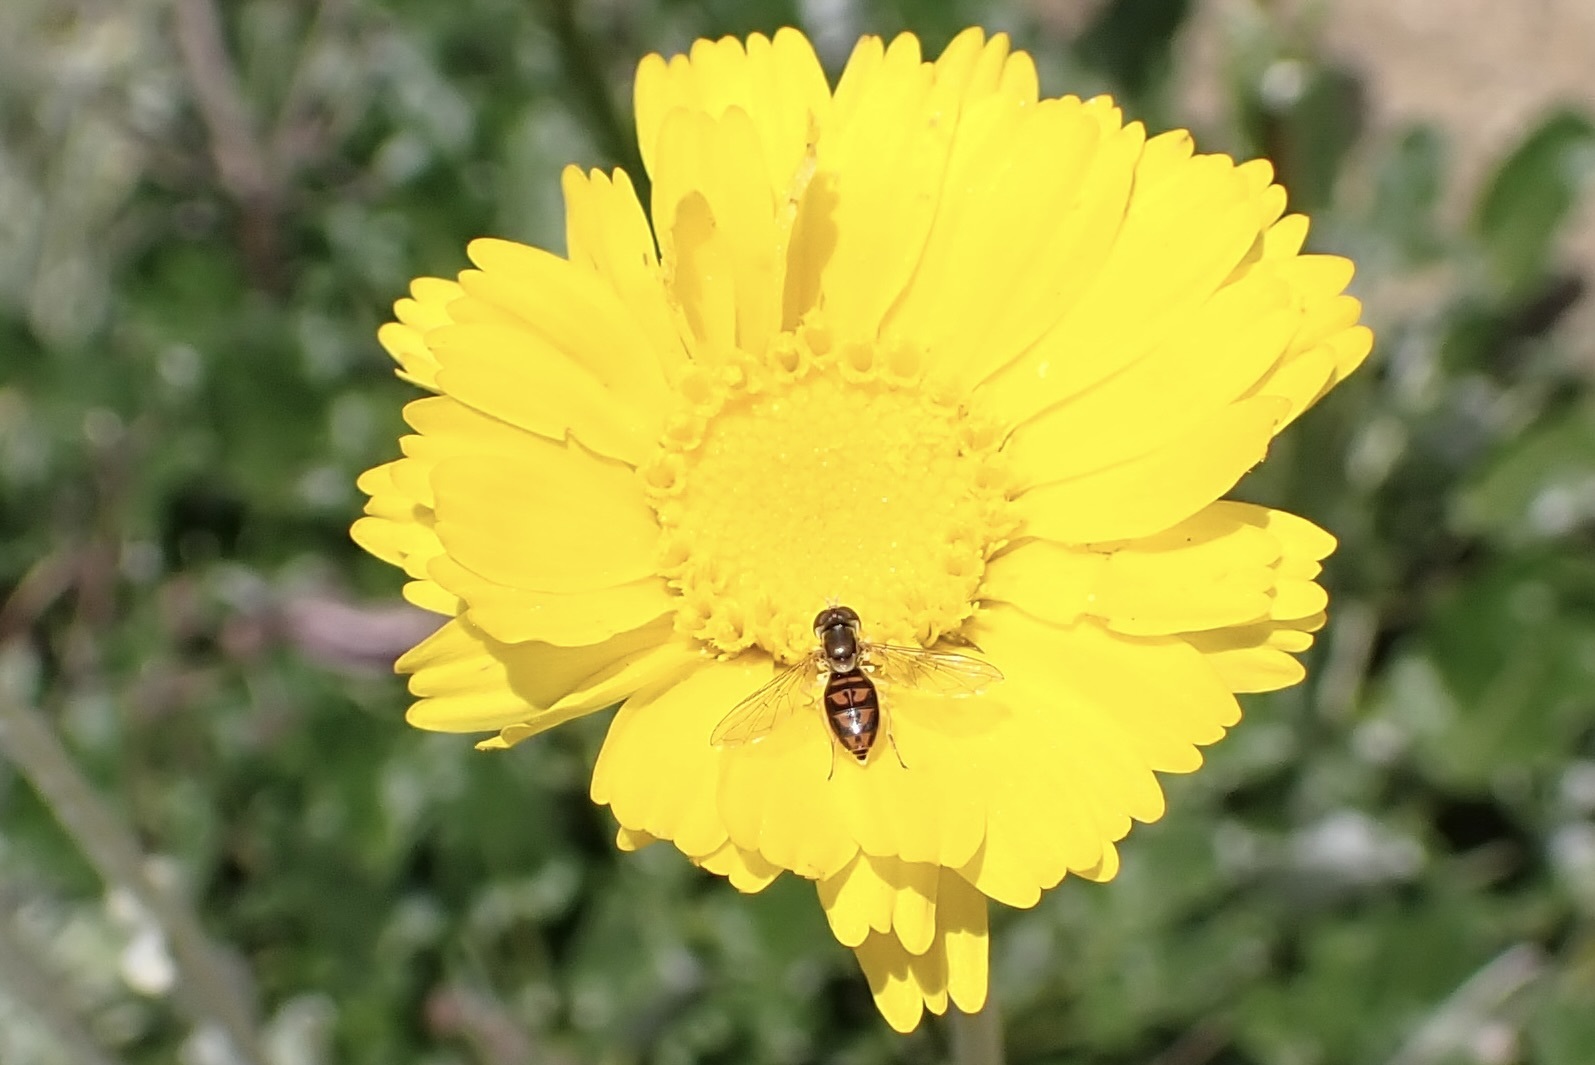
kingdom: Animalia
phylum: Arthropoda
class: Insecta
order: Diptera
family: Syrphidae
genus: Toxomerus
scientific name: Toxomerus marginatus
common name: Syrphid fly
